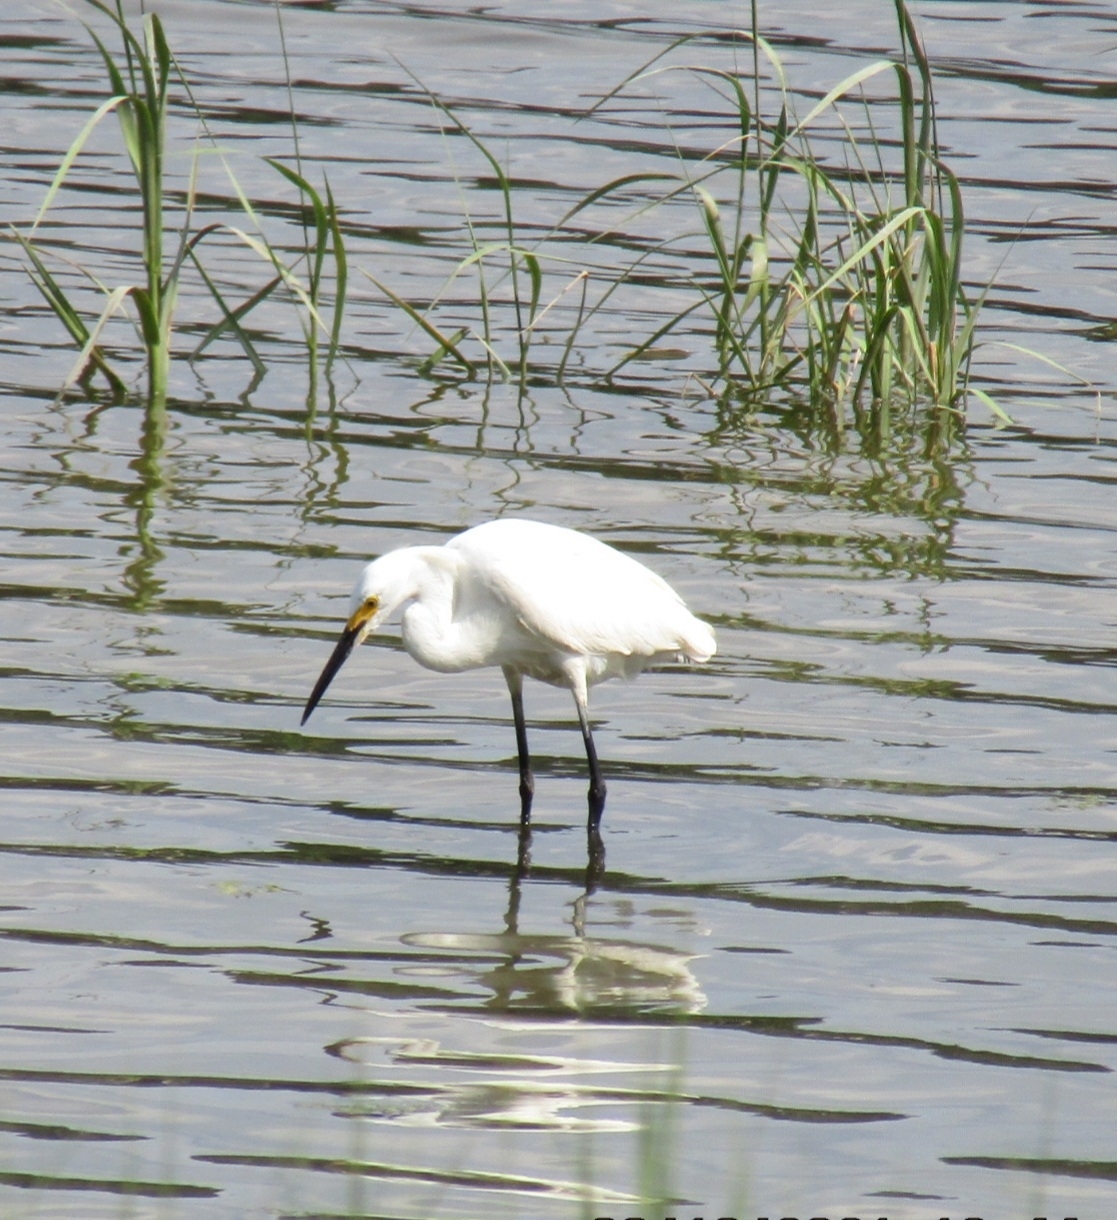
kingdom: Animalia
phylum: Chordata
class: Aves
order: Pelecaniformes
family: Ardeidae
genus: Egretta
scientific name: Egretta thula
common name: Snowy egret
